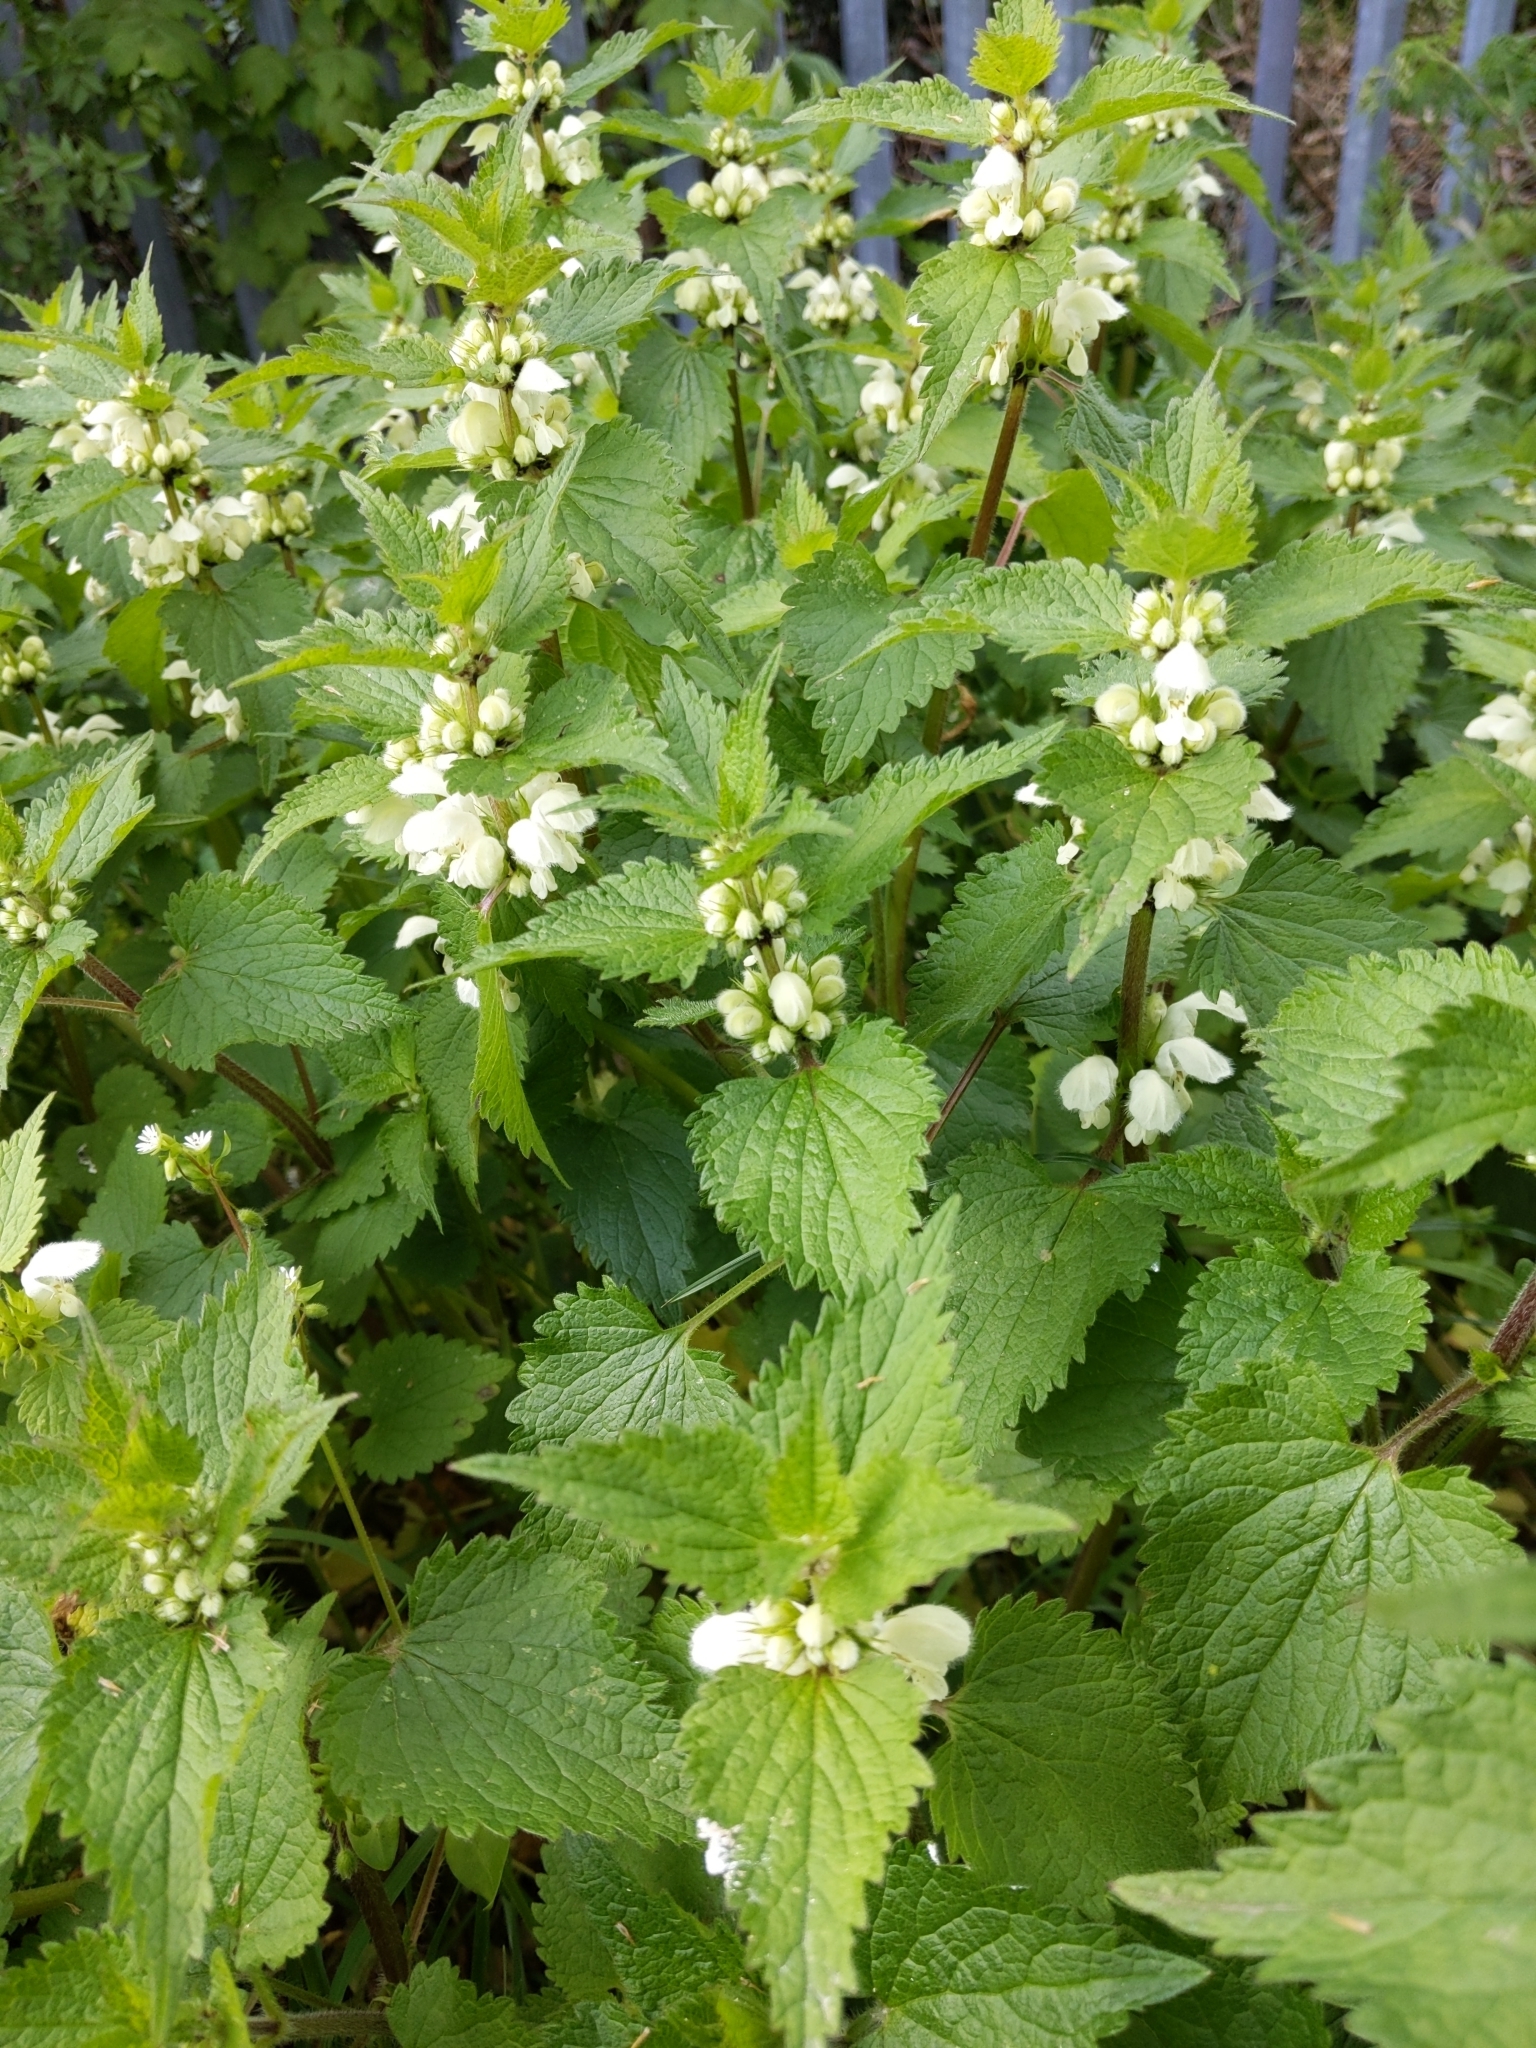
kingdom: Plantae
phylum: Tracheophyta
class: Magnoliopsida
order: Lamiales
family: Lamiaceae
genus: Lamium
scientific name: Lamium album
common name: White dead-nettle
